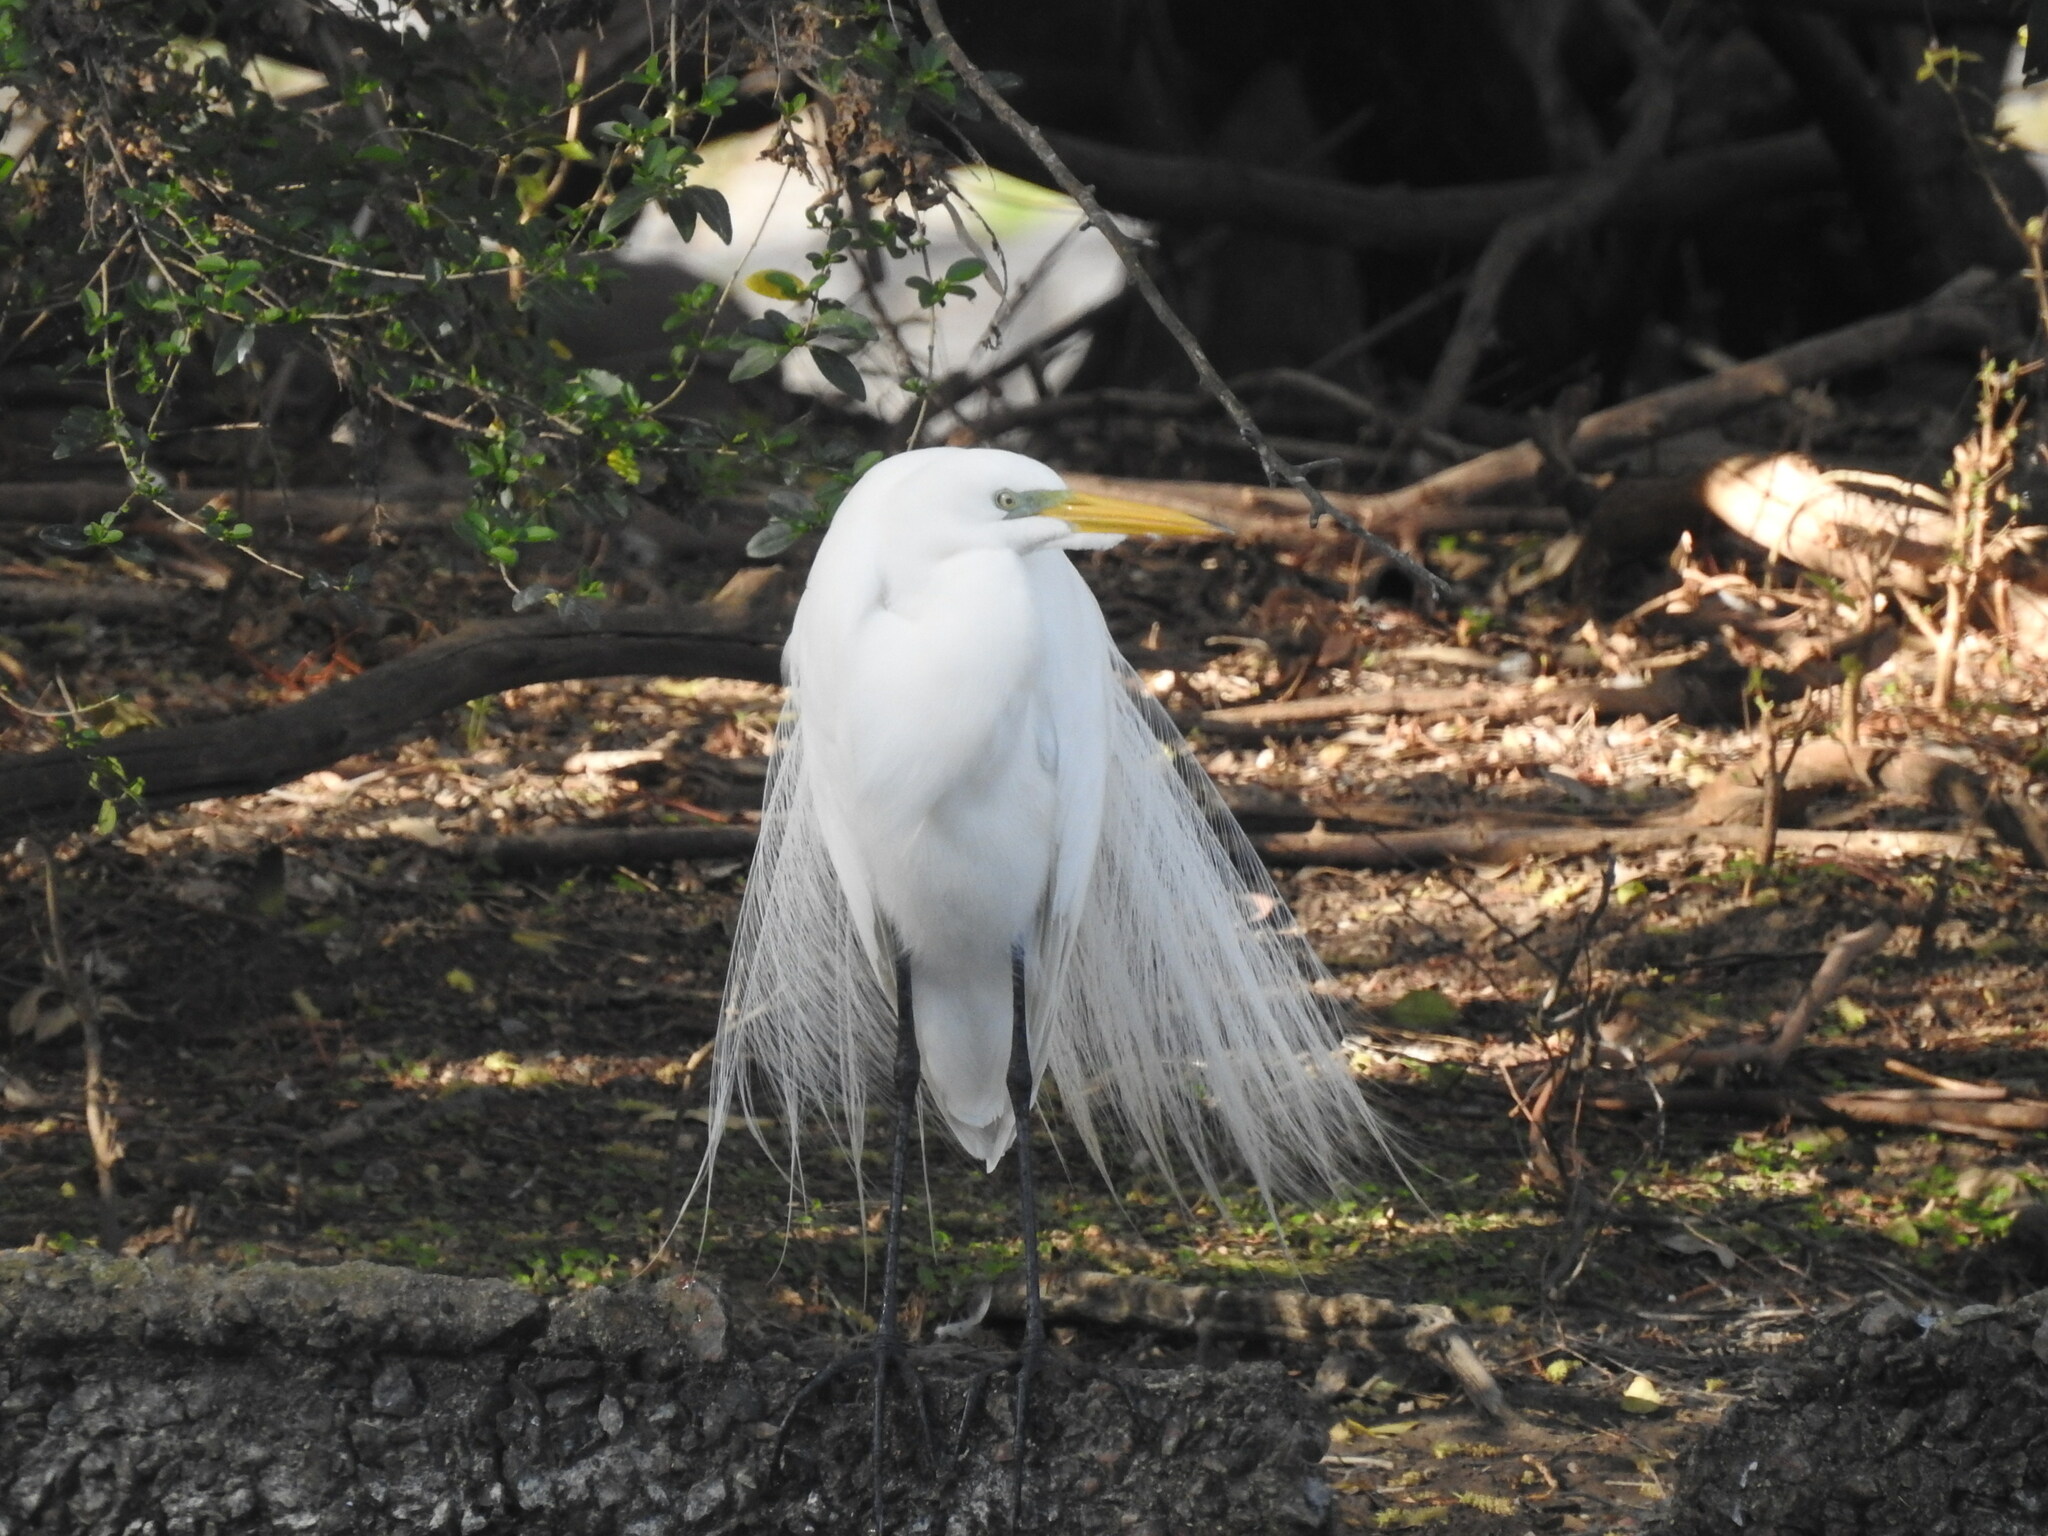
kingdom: Animalia
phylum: Chordata
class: Aves
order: Pelecaniformes
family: Ardeidae
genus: Ardea
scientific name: Ardea alba
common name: Great egret
